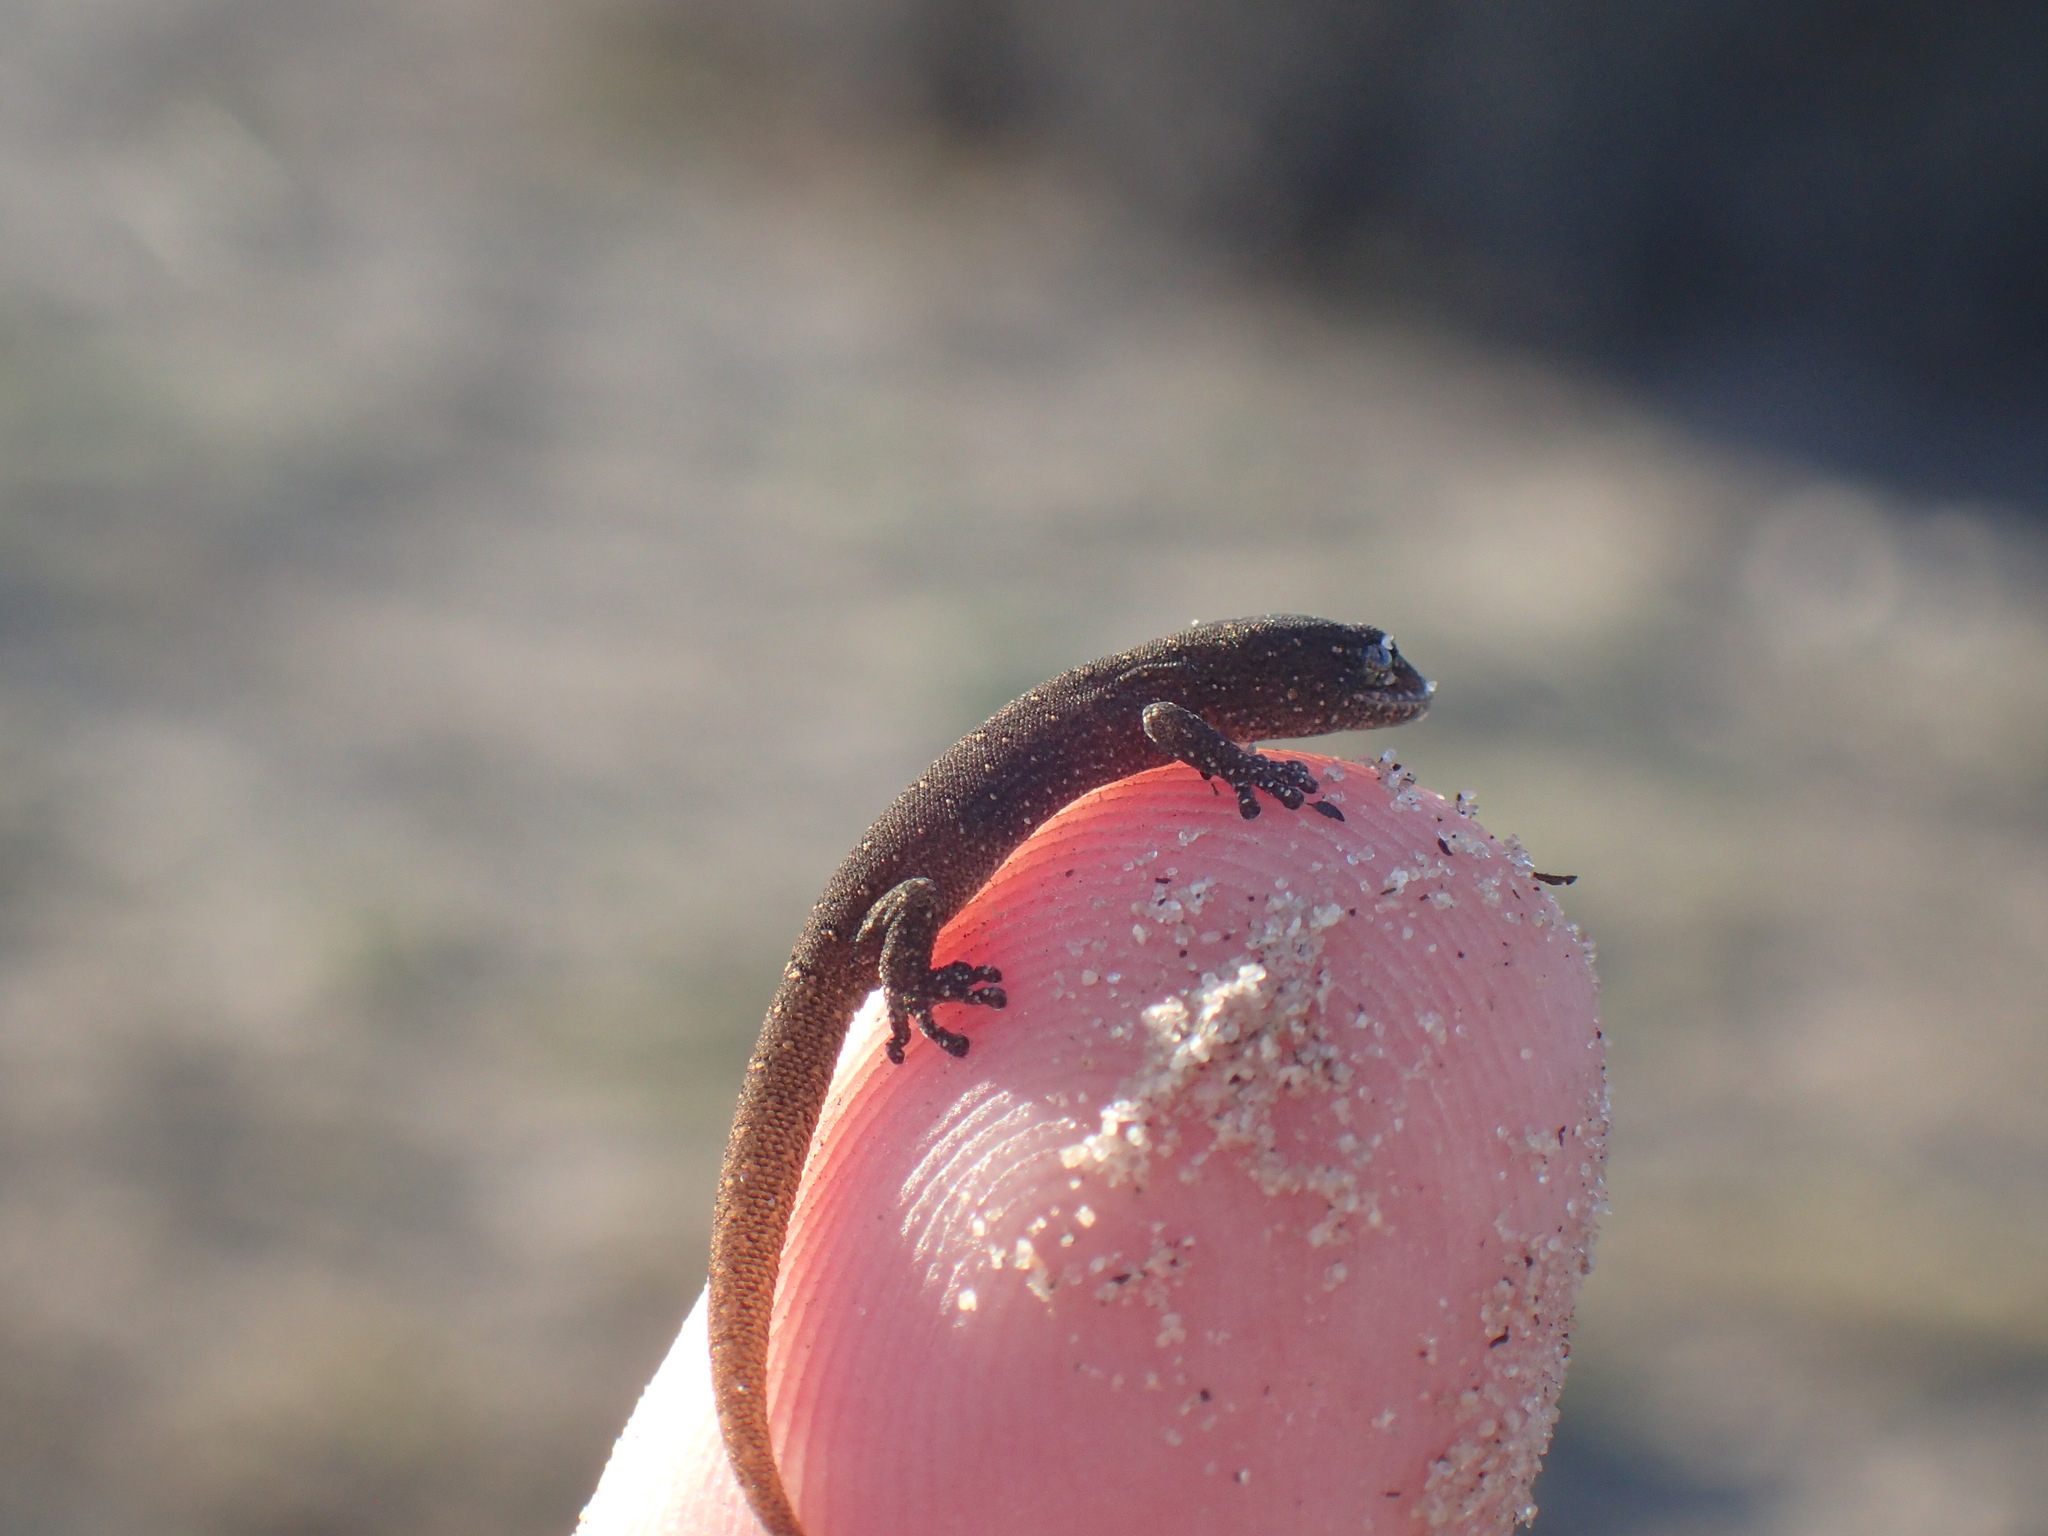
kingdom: Animalia
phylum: Chordata
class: Squamata
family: Gekkonidae
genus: Goggia
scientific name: Goggia incognita
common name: Cryptic pygmy gecko
